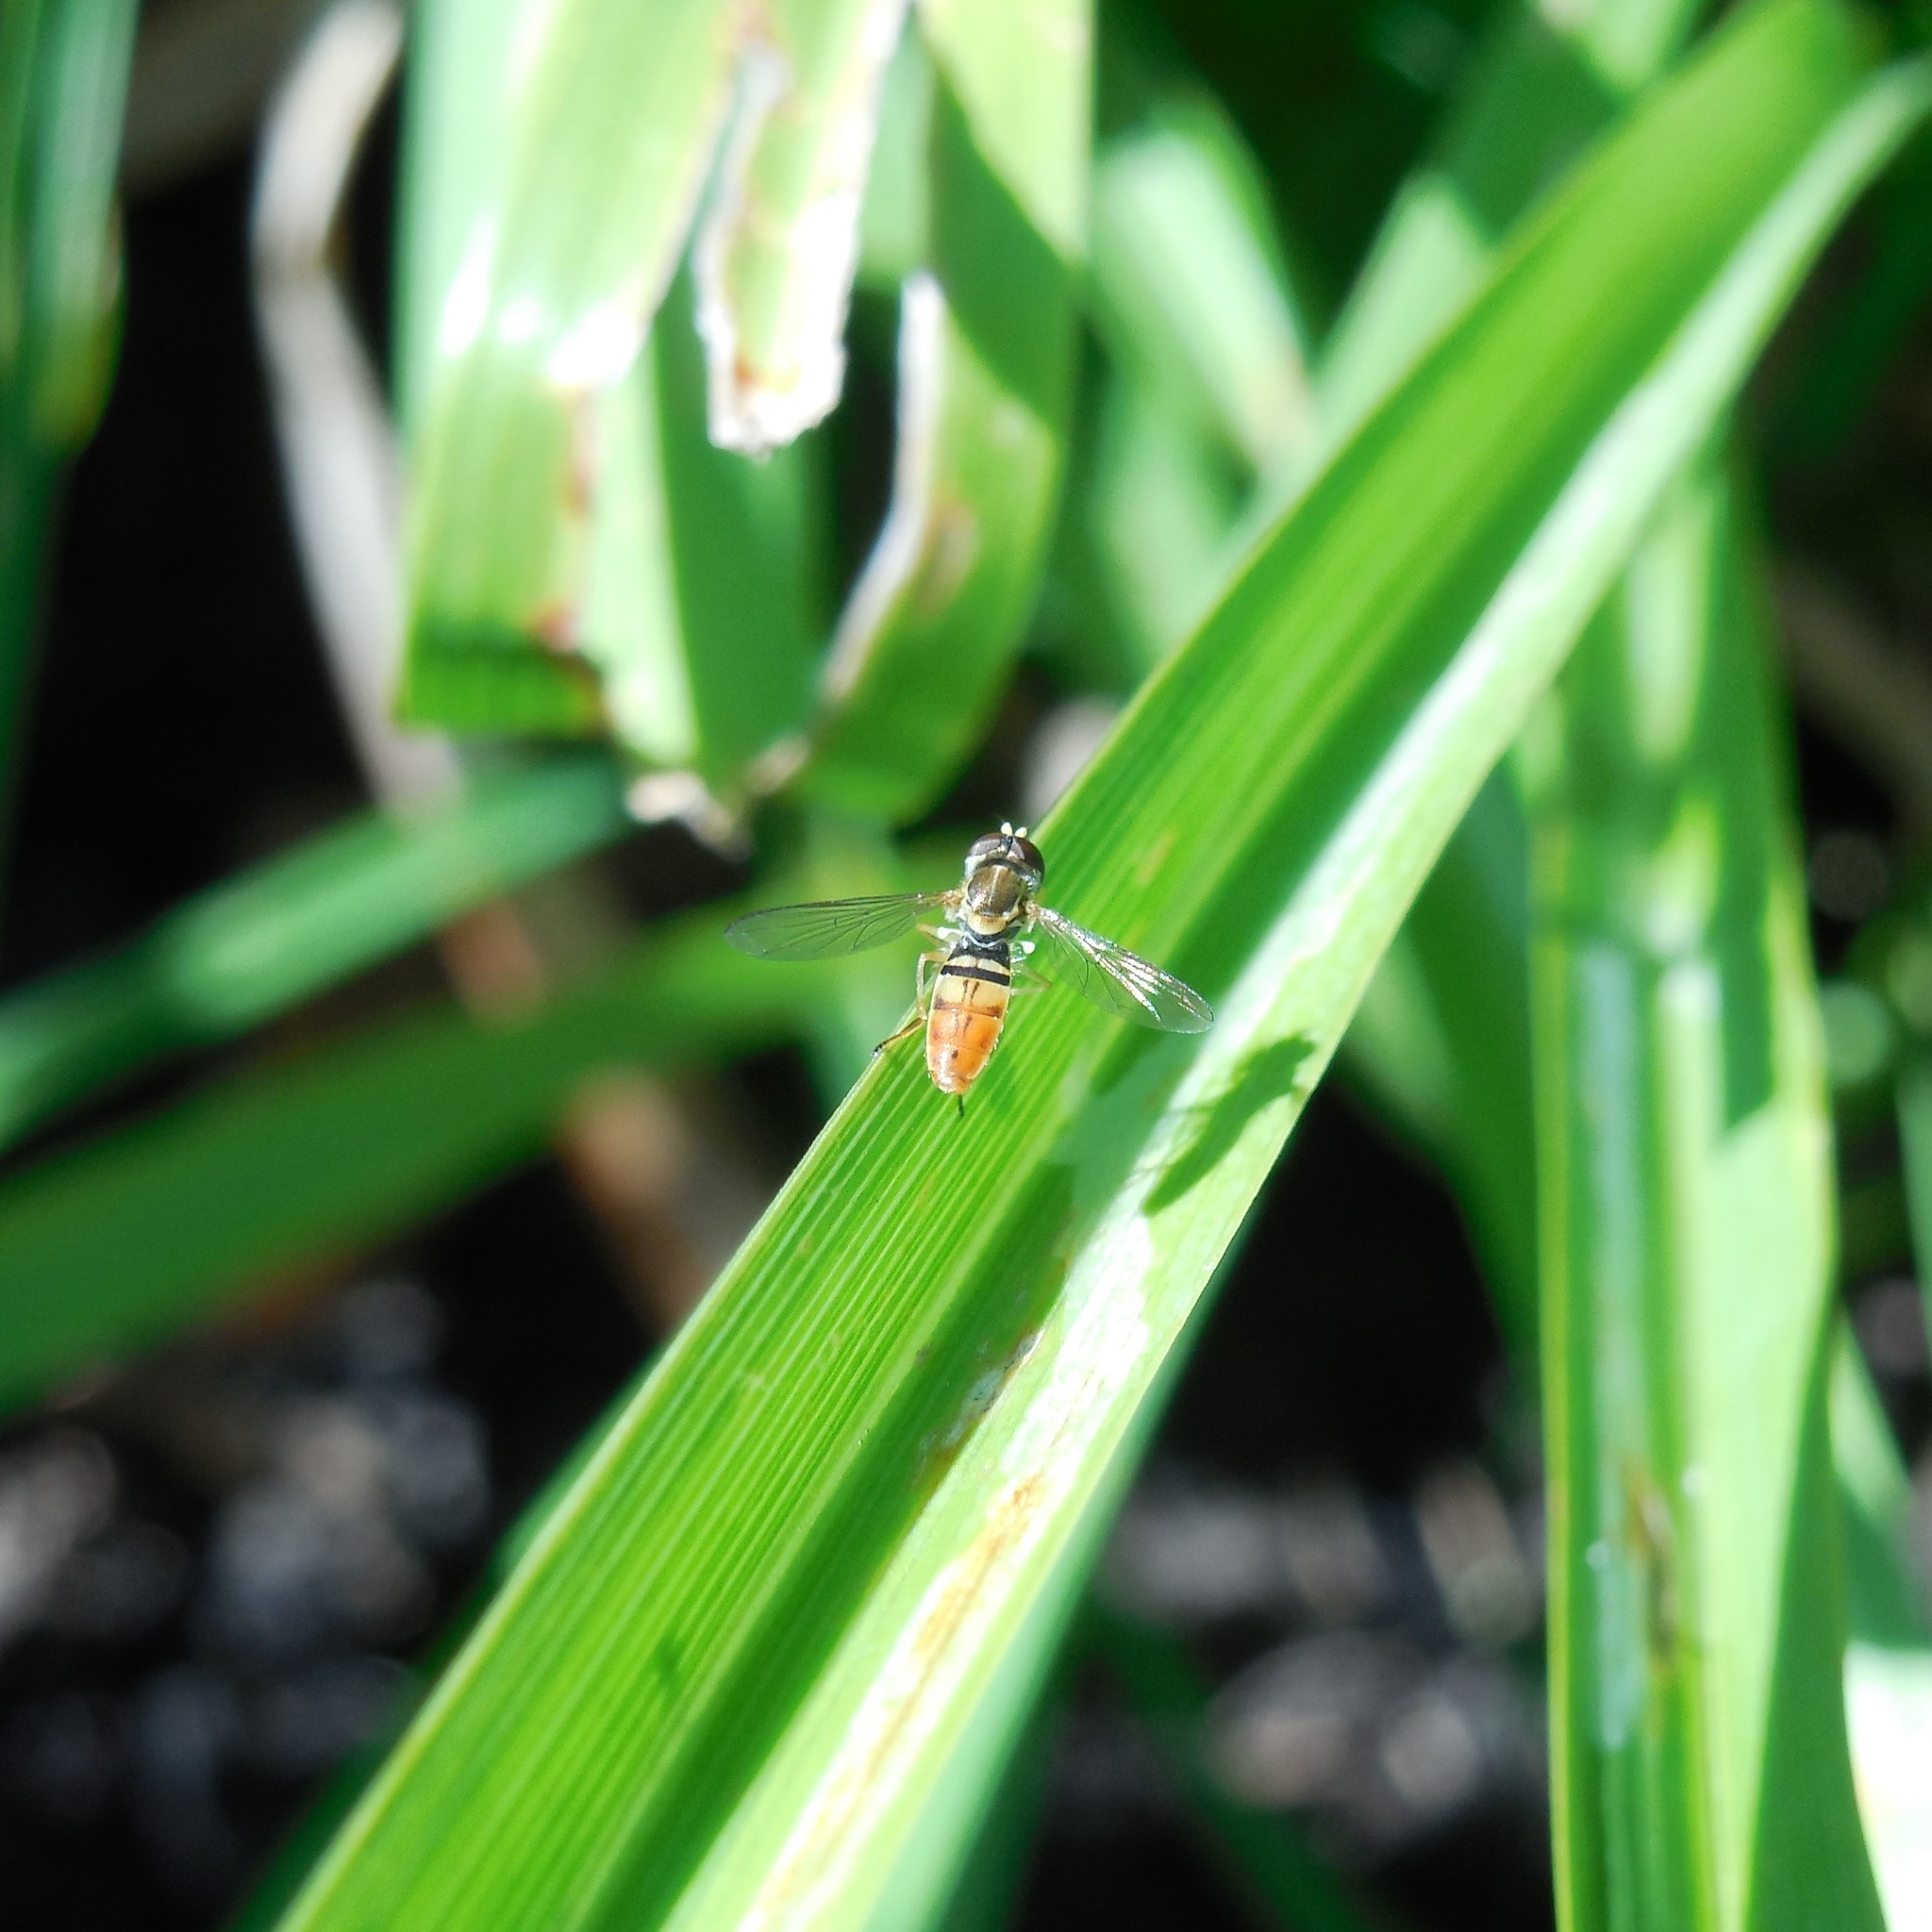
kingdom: Animalia
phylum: Arthropoda
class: Insecta
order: Diptera
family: Syrphidae
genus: Toxomerus
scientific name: Toxomerus marginatus
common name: Syrphid fly
